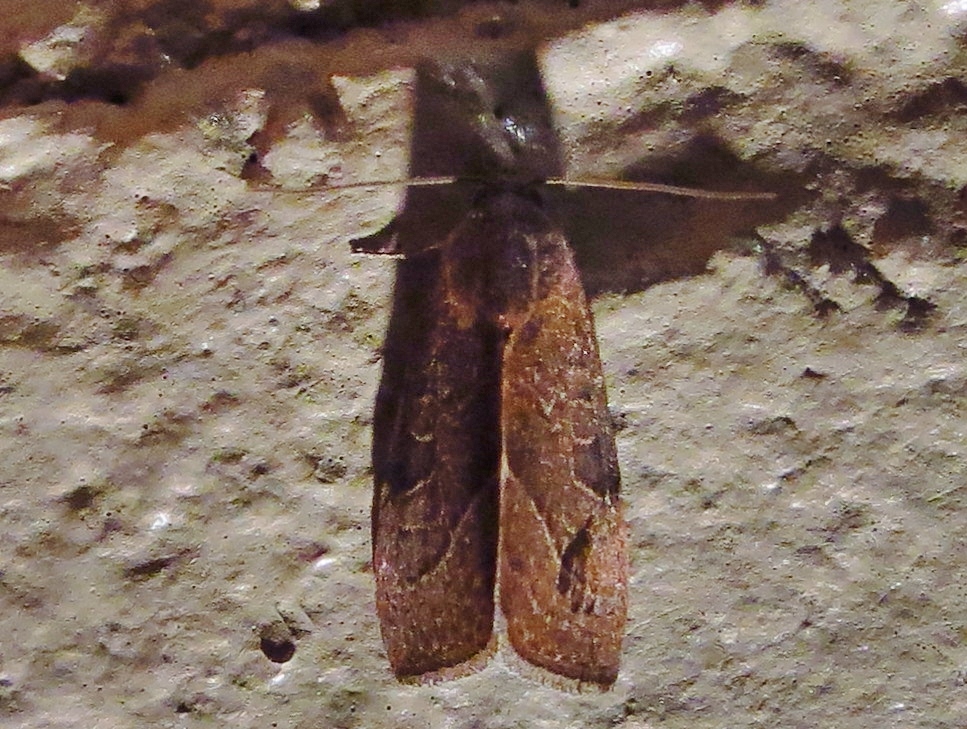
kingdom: Animalia
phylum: Arthropoda
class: Insecta
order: Lepidoptera
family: Noctuidae
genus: Galgula
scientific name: Galgula partita
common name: Wedgeling
